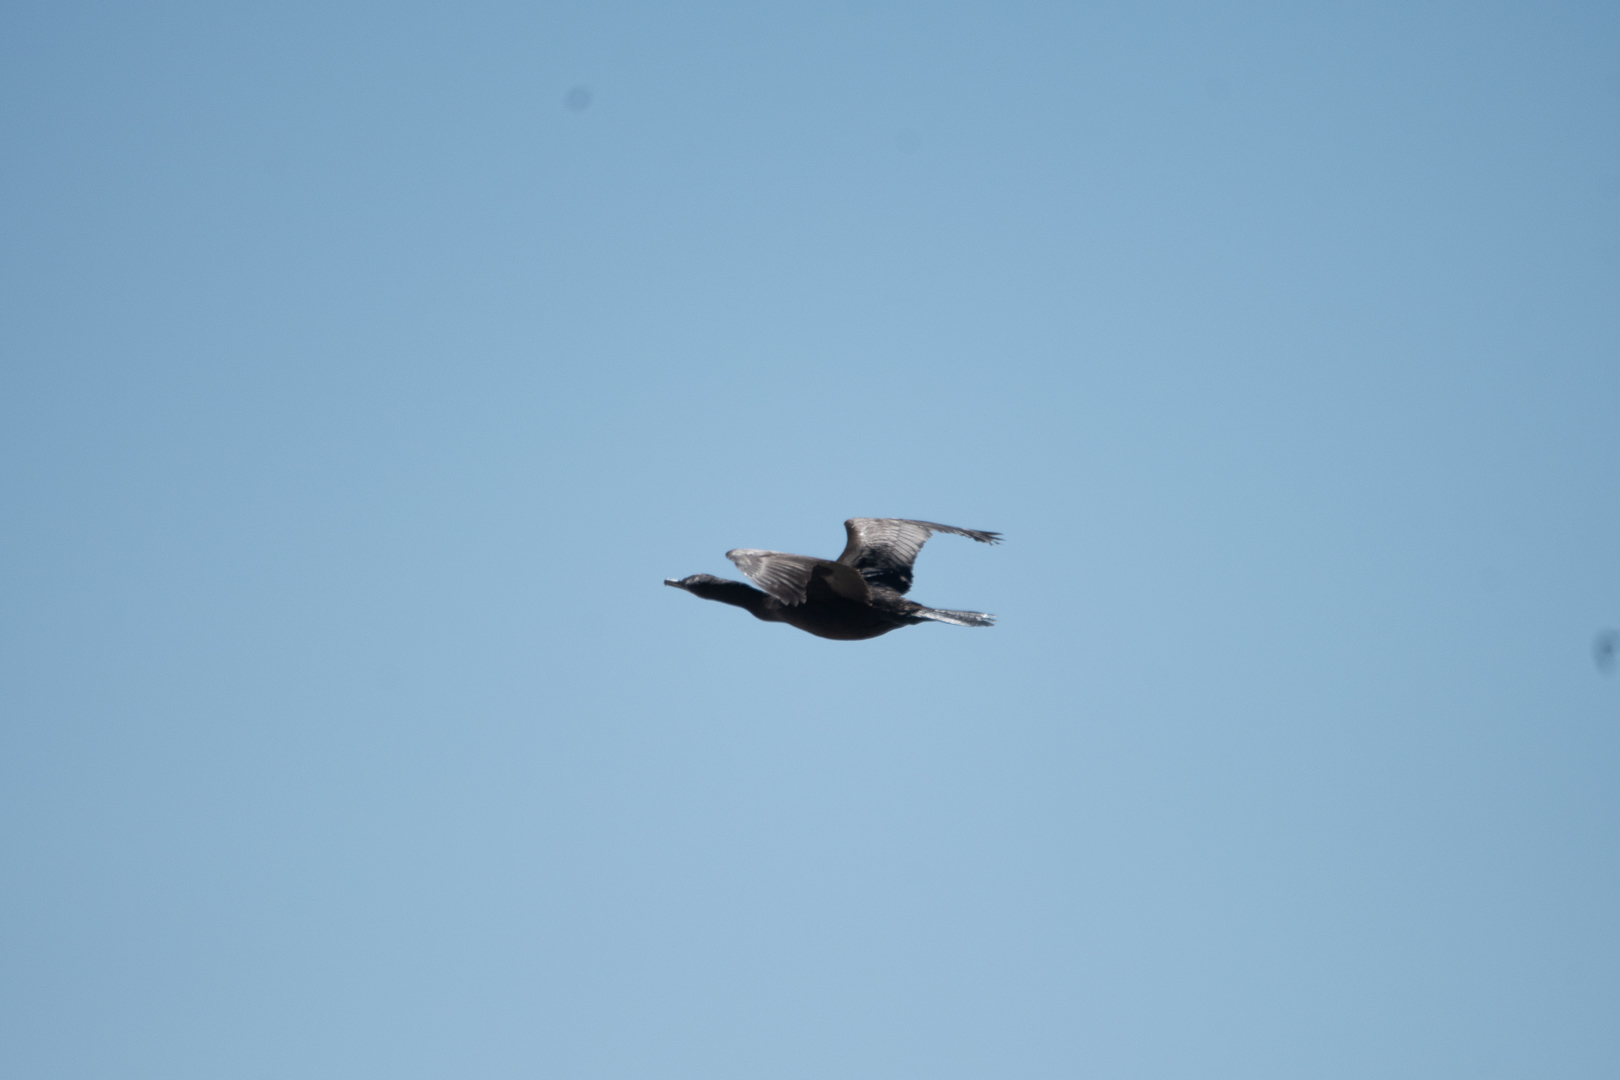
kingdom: Animalia
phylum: Chordata
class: Aves
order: Suliformes
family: Phalacrocoracidae
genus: Phalacrocorax
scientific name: Phalacrocorax brasilianus
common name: Neotropic cormorant
